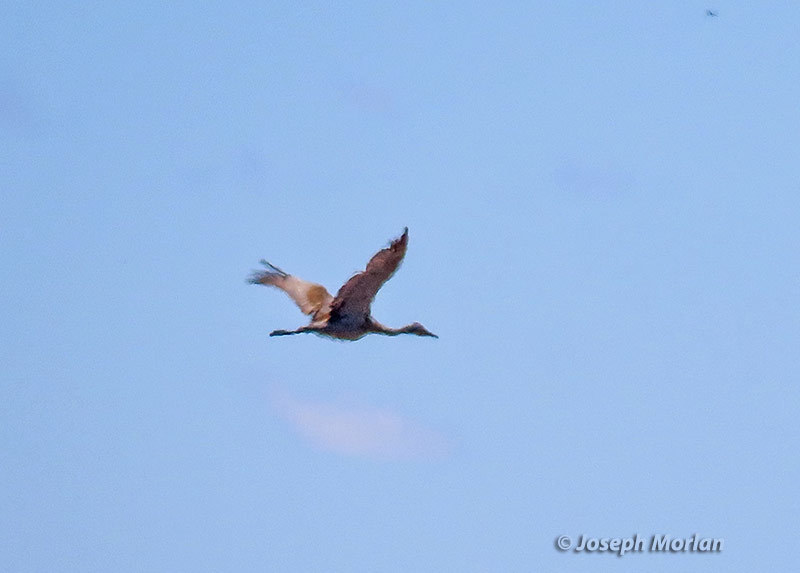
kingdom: Animalia
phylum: Chordata
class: Aves
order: Gruiformes
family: Gruidae
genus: Grus
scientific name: Grus canadensis
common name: Sandhill crane
